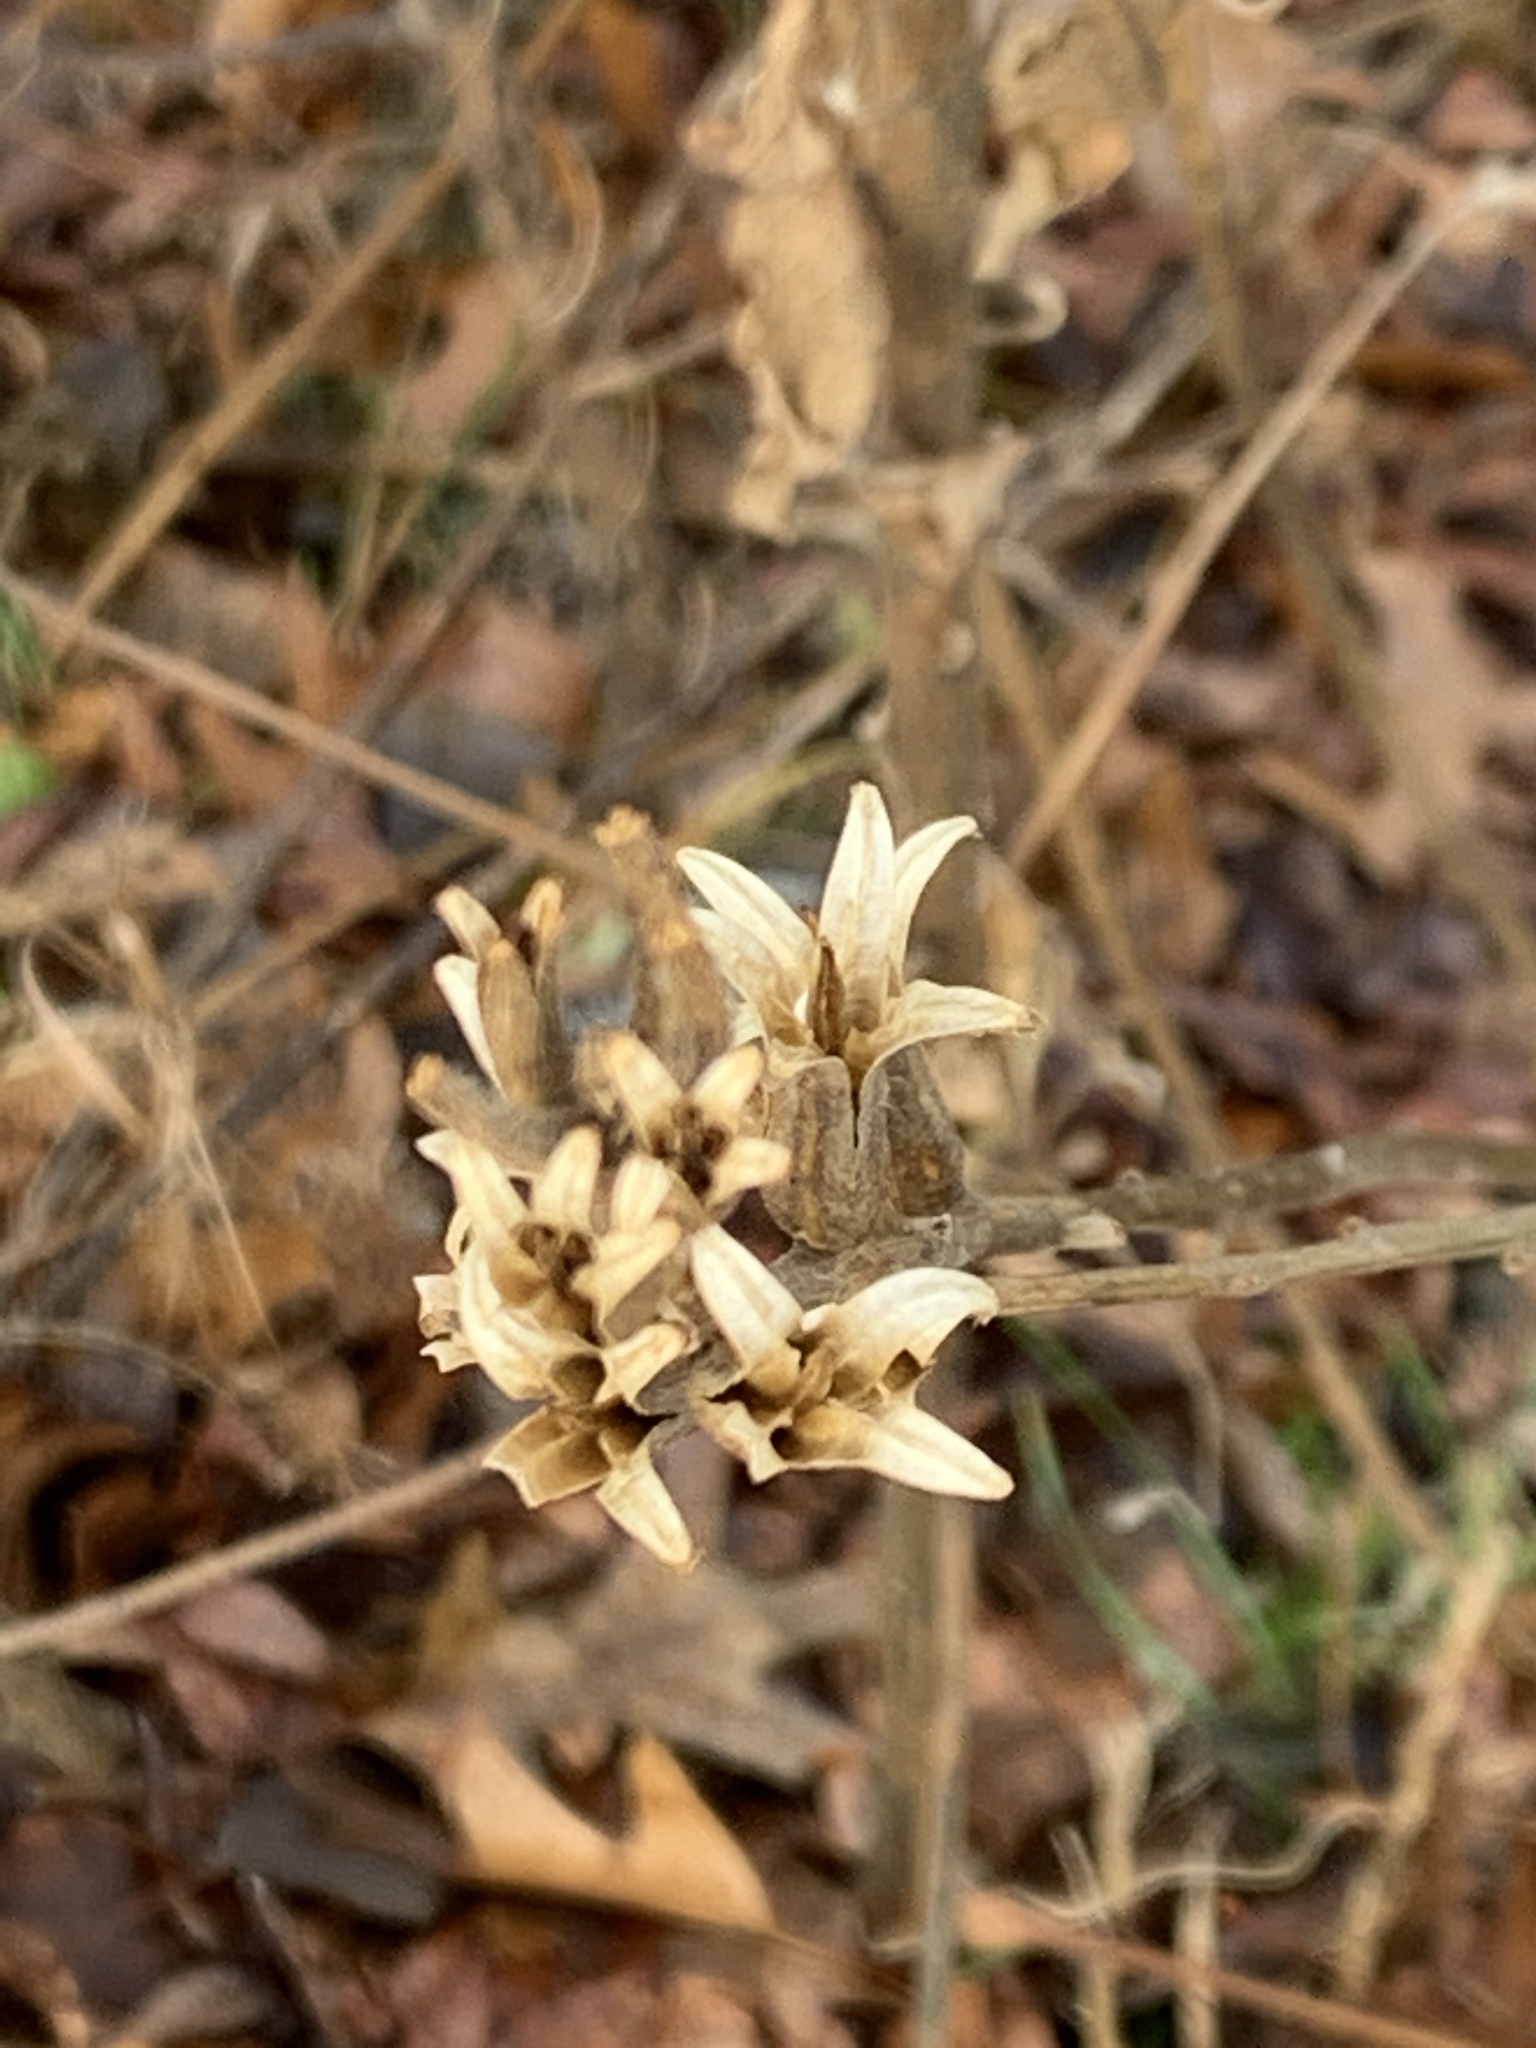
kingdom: Plantae
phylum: Tracheophyta
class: Magnoliopsida
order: Myrtales
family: Onagraceae
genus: Oenothera
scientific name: Oenothera biennis
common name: Common evening-primrose
